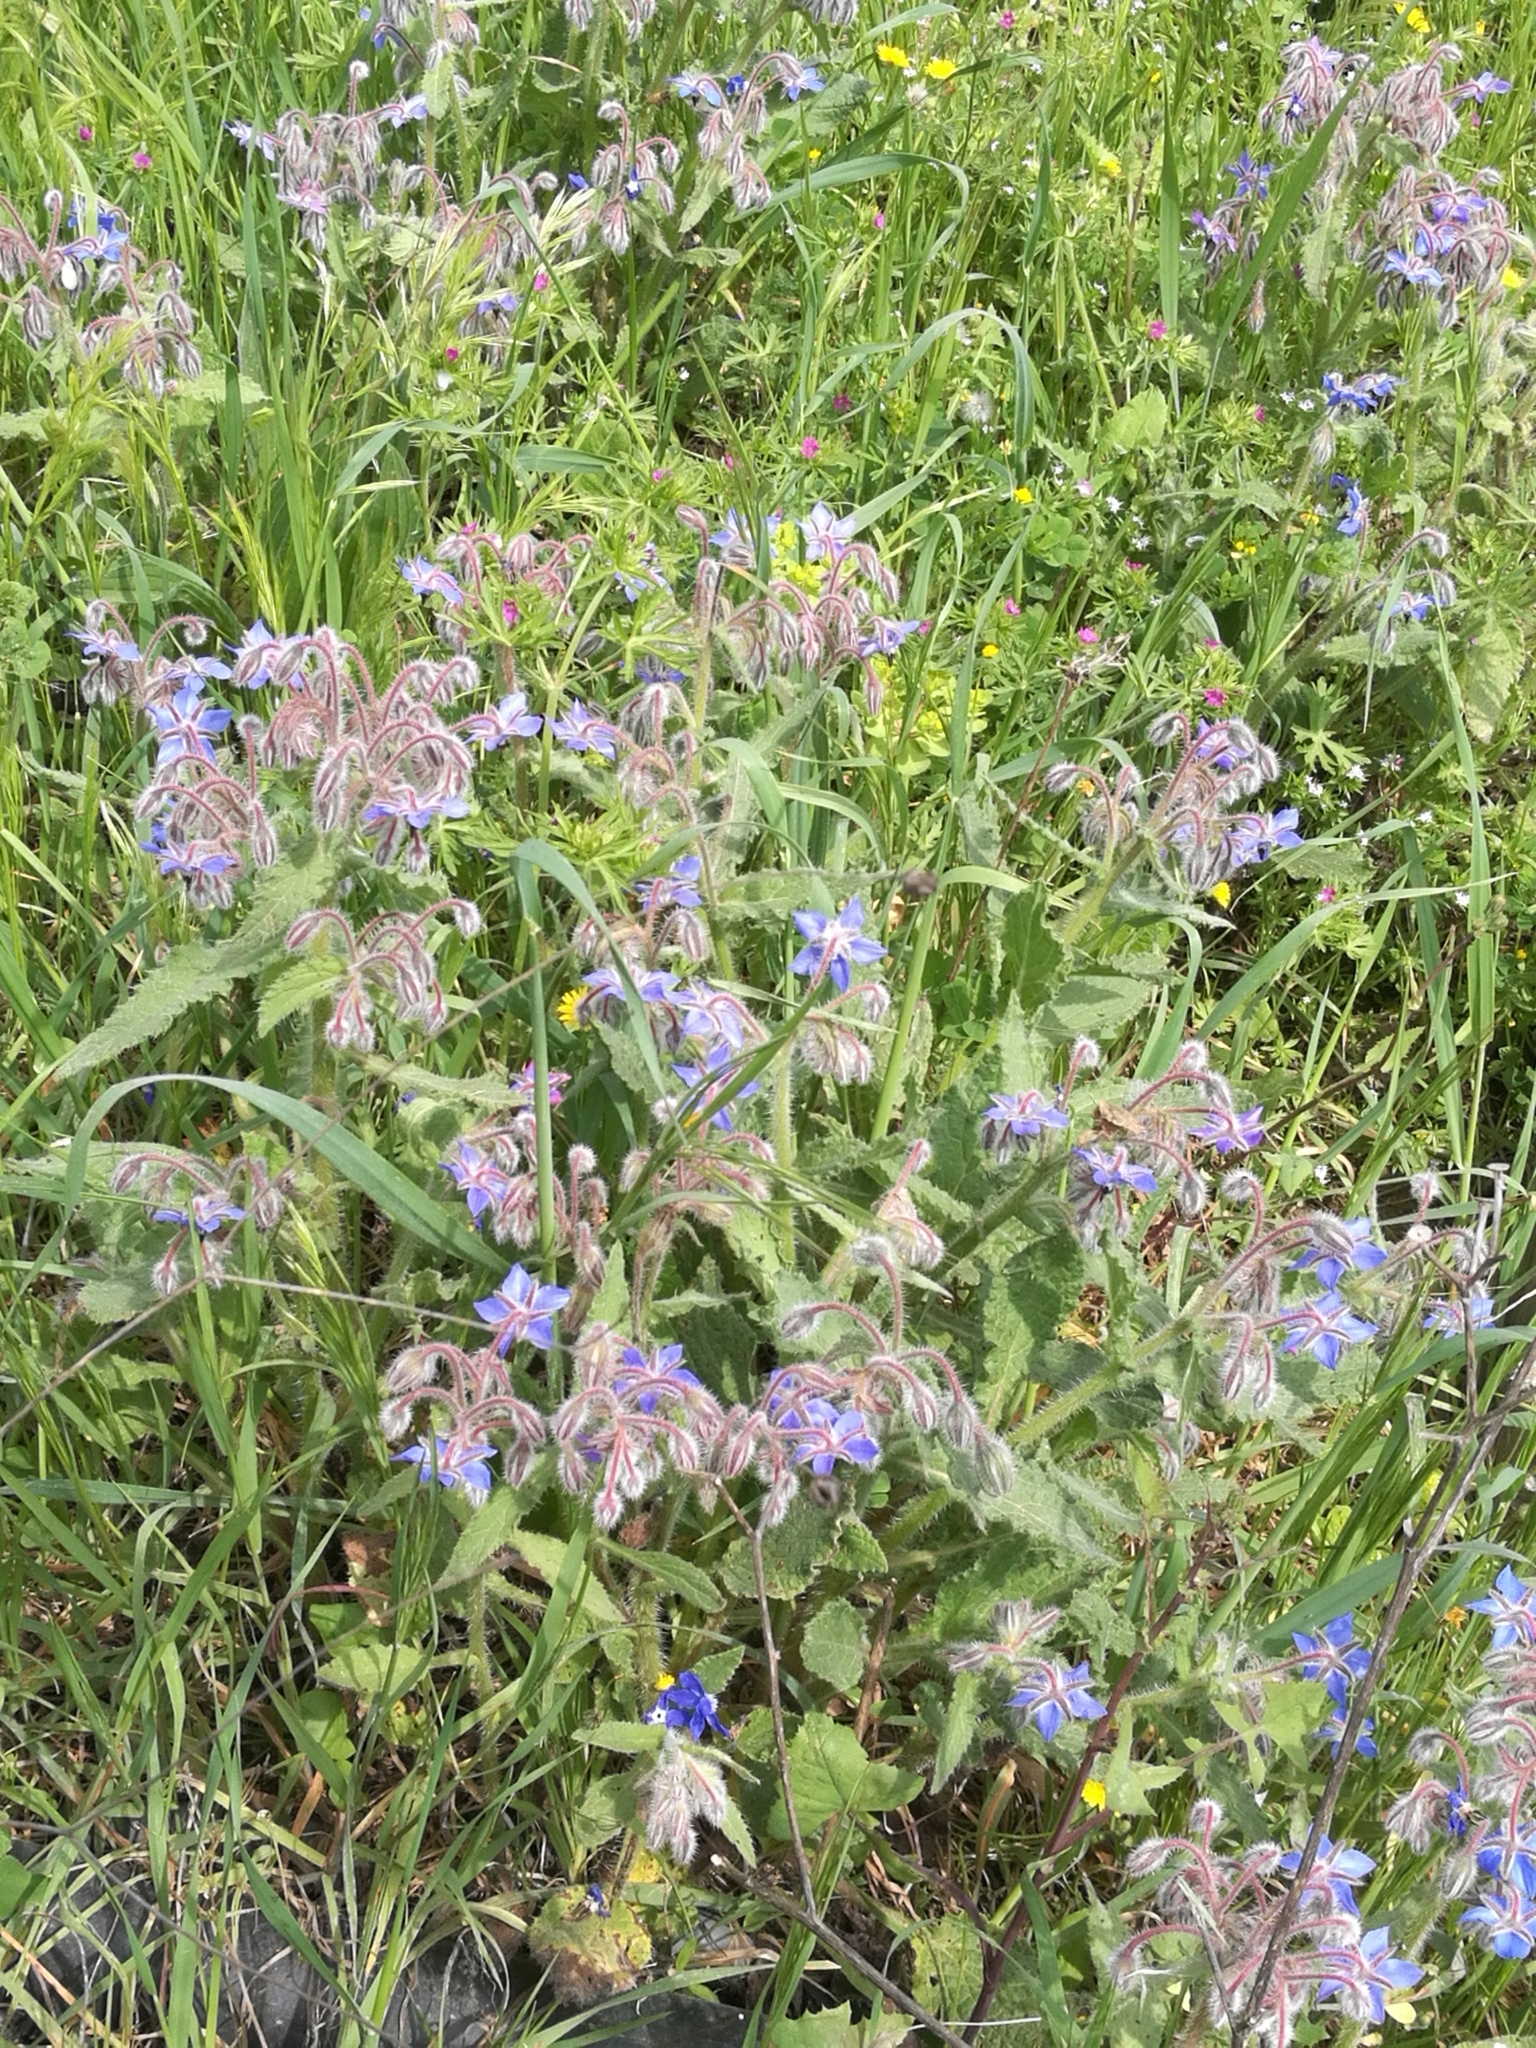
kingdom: Plantae
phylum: Tracheophyta
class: Magnoliopsida
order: Boraginales
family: Boraginaceae
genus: Borago
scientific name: Borago officinalis
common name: Borage
